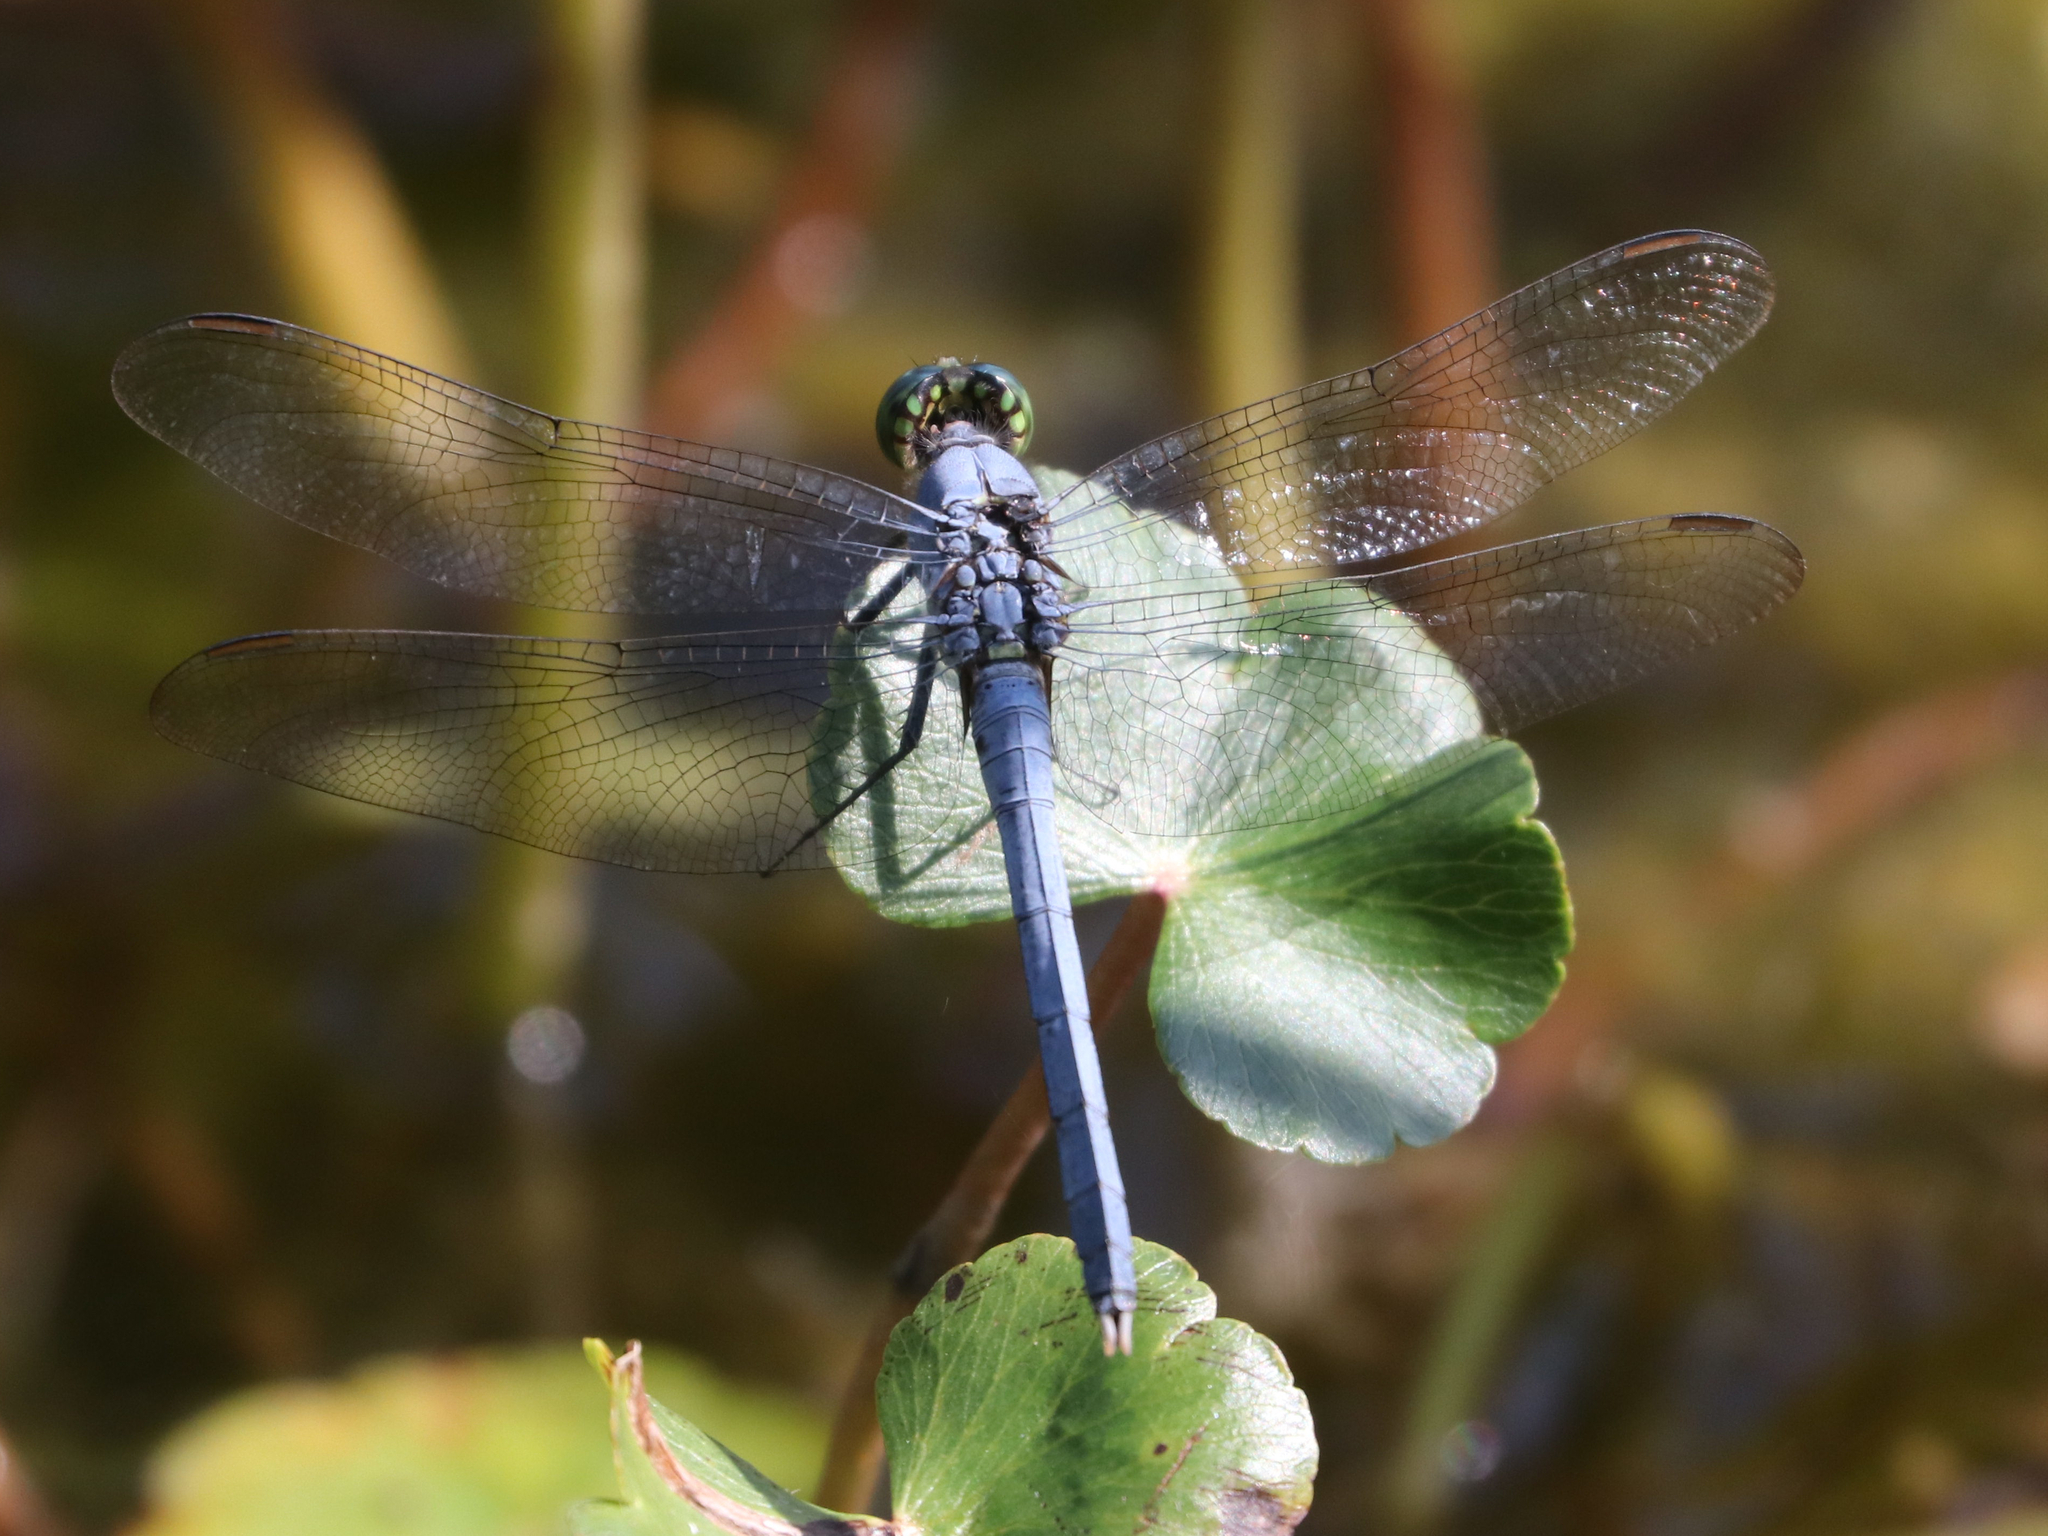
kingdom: Animalia
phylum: Arthropoda
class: Insecta
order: Odonata
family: Libellulidae
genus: Erythemis
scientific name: Erythemis simplicicollis
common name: Eastern pondhawk
